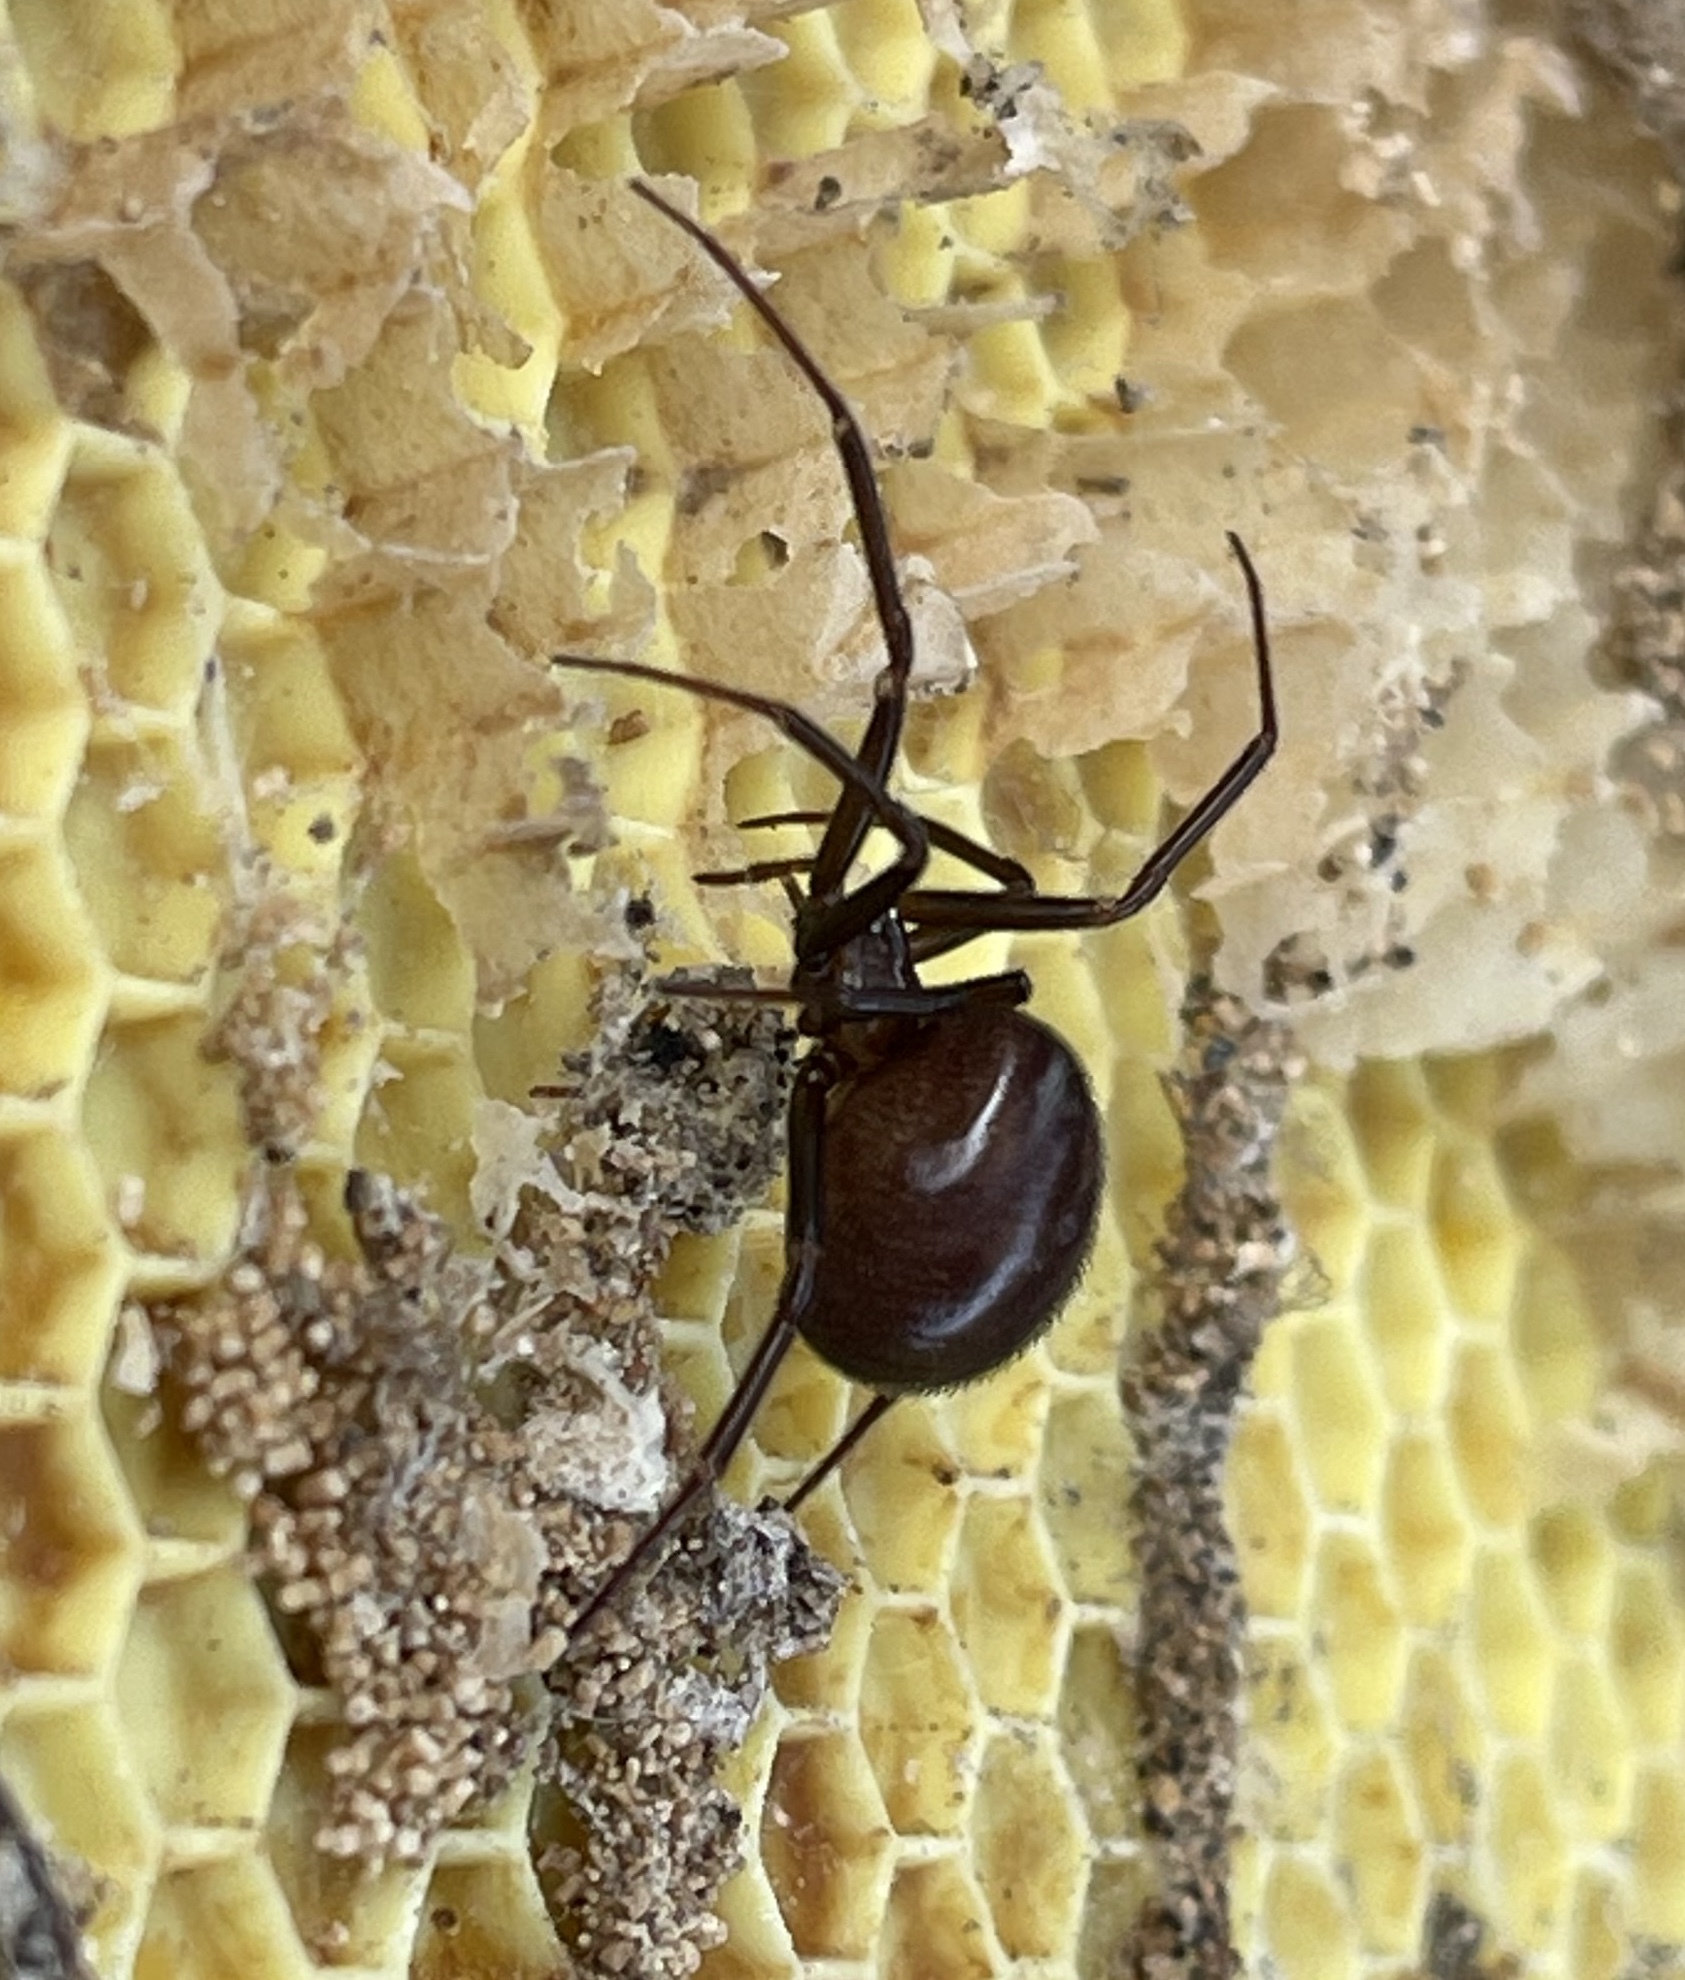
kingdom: Animalia
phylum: Arthropoda
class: Arachnida
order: Araneae
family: Theridiidae
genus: Steatoda
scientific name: Steatoda grossa
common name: False black widow
